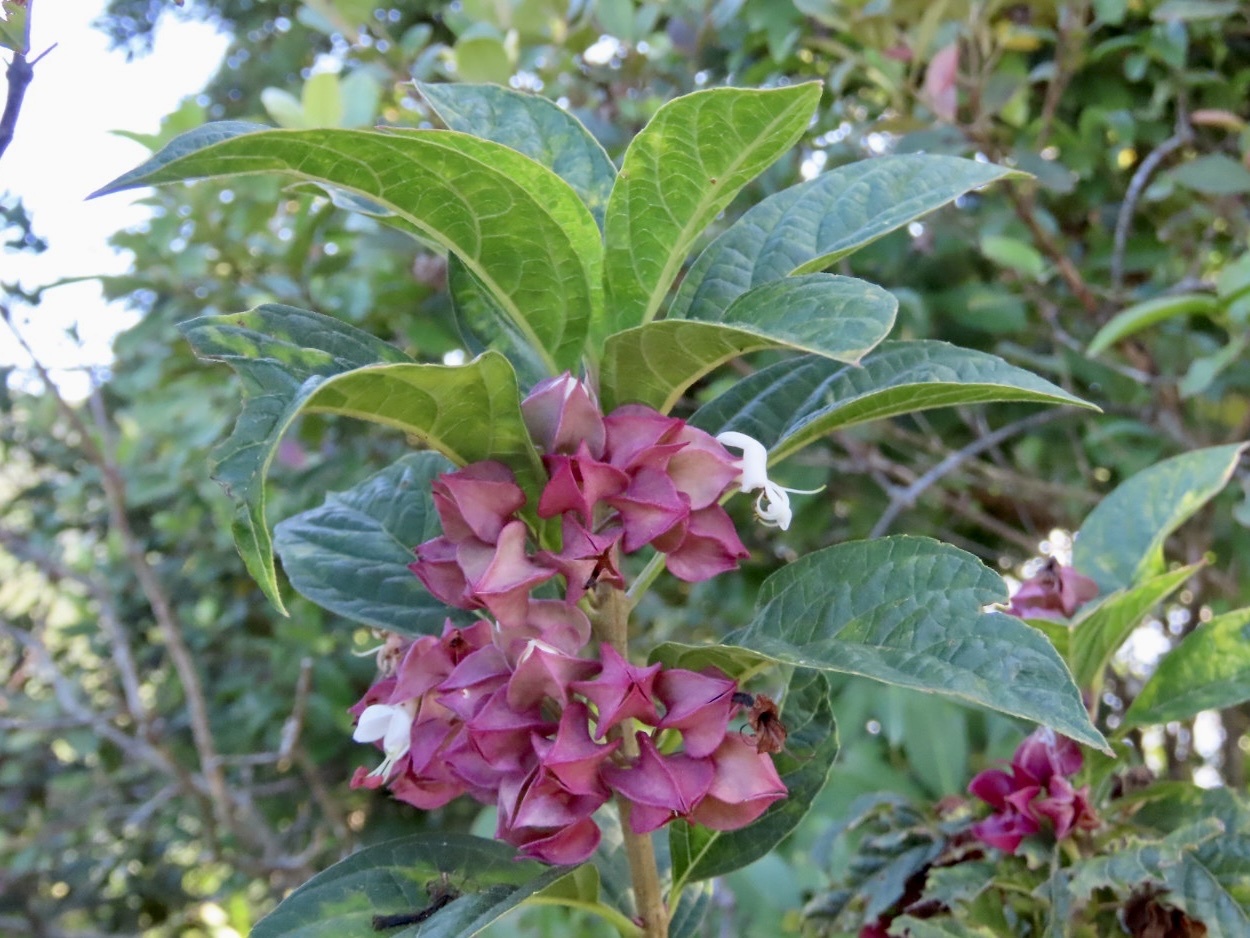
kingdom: Plantae
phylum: Tracheophyta
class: Magnoliopsida
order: Lamiales
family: Lamiaceae
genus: Clerodendrum
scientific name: Clerodendrum fortunatum
